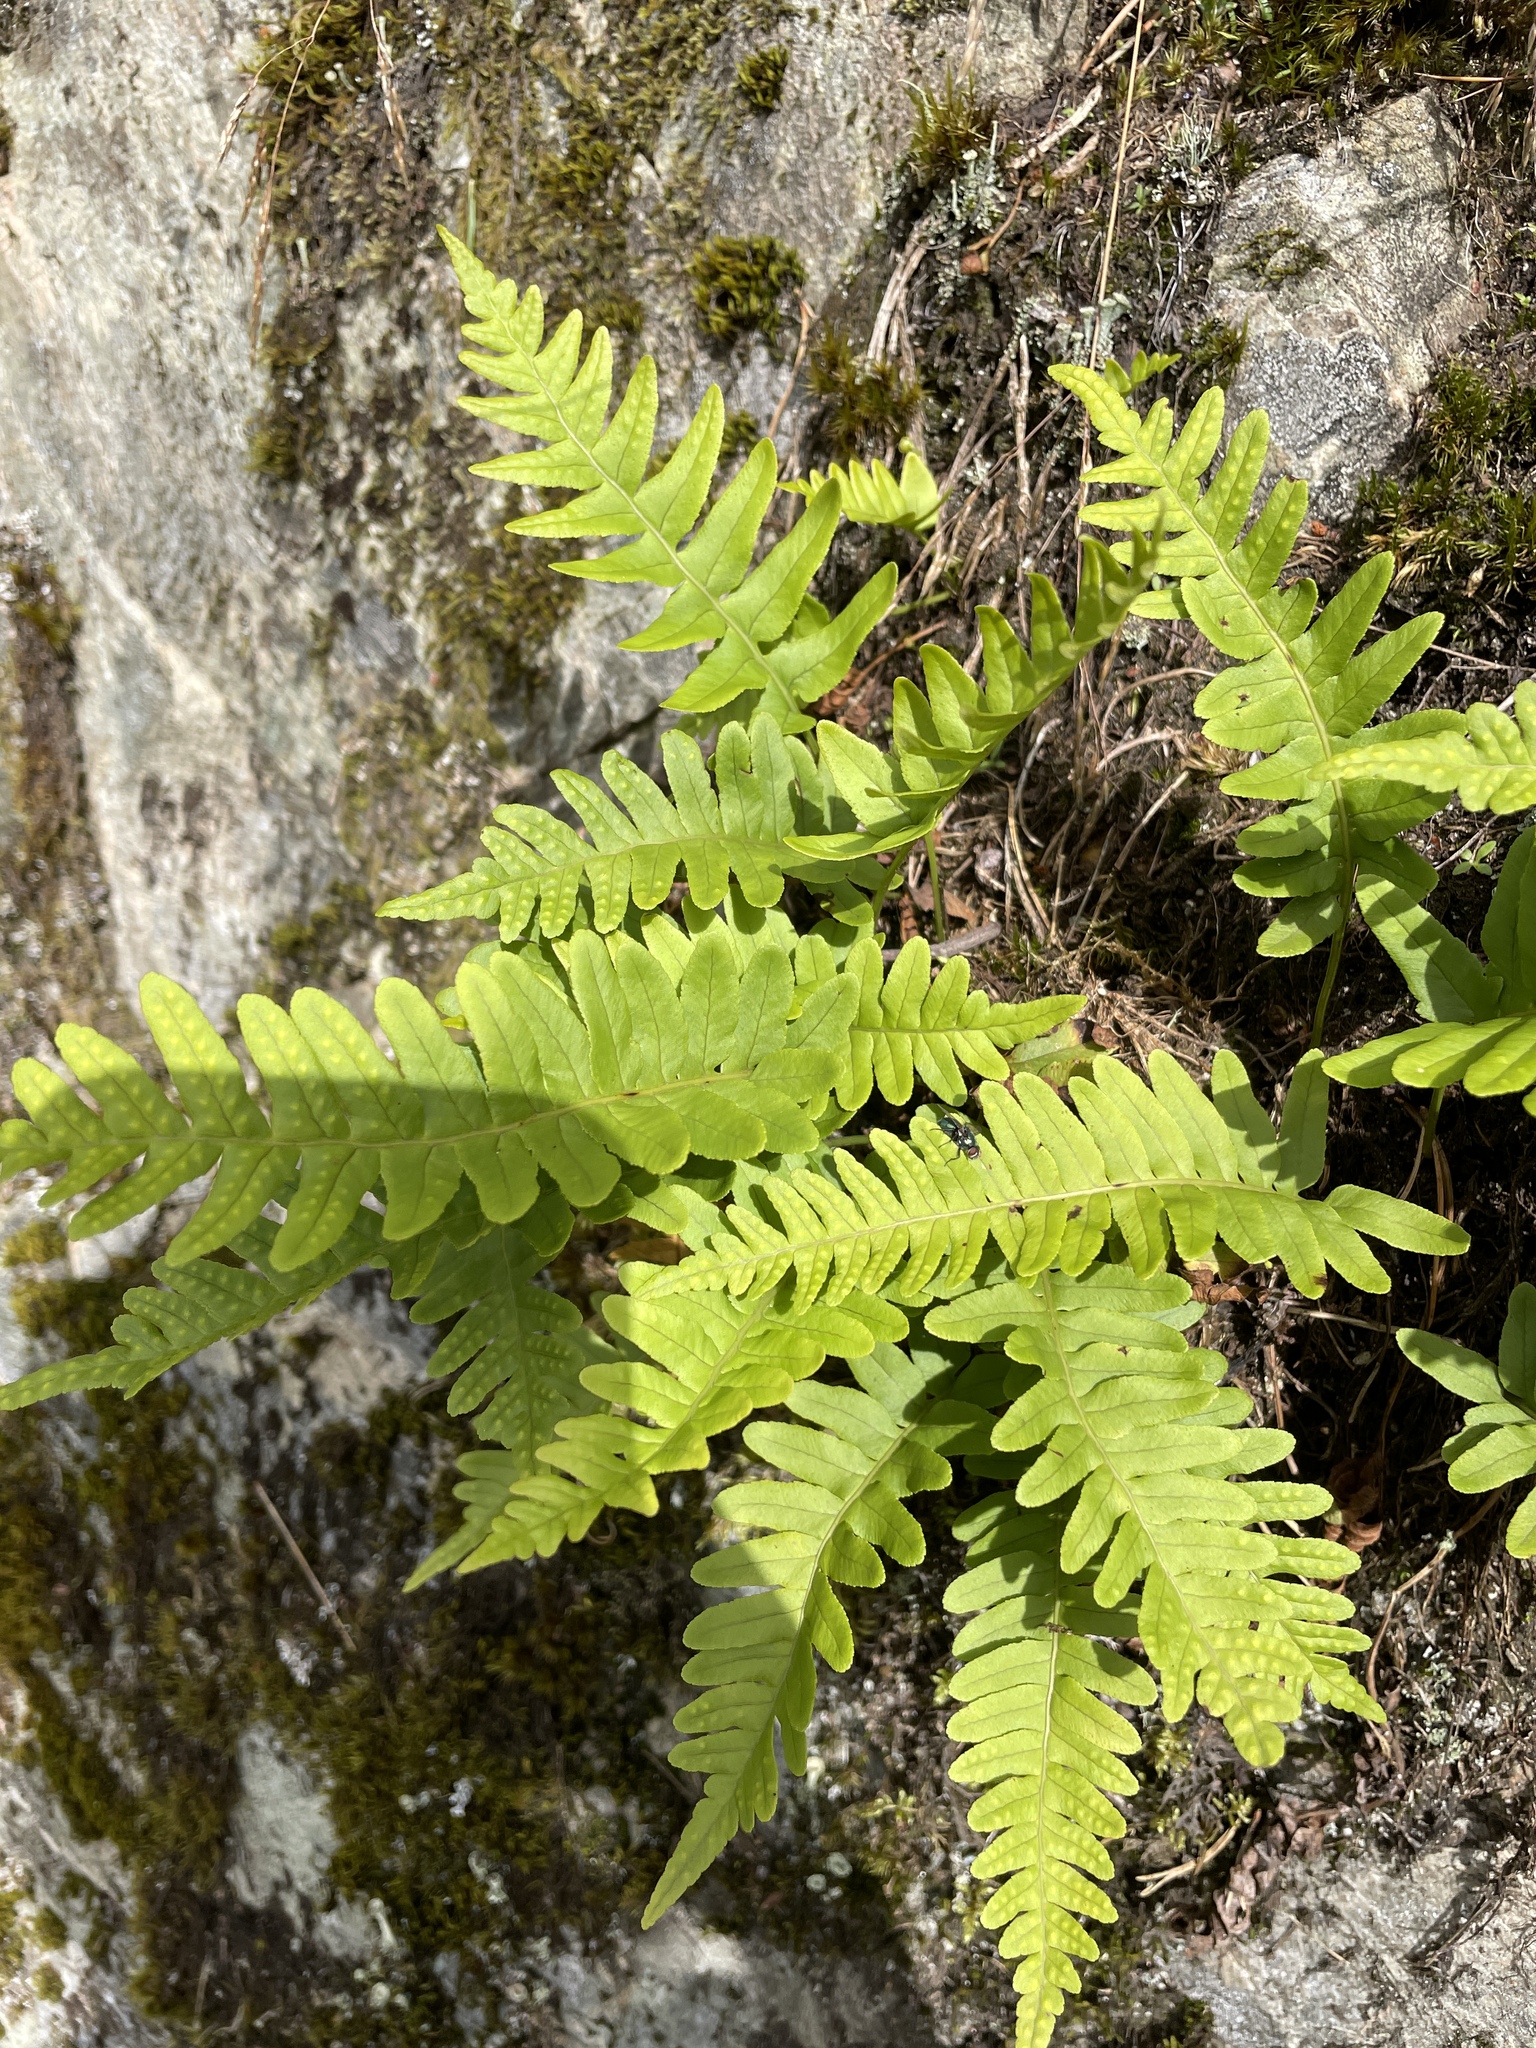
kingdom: Plantae
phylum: Tracheophyta
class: Polypodiopsida
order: Polypodiales
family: Polypodiaceae
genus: Polypodium
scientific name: Polypodium vulgare
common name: Common polypody
